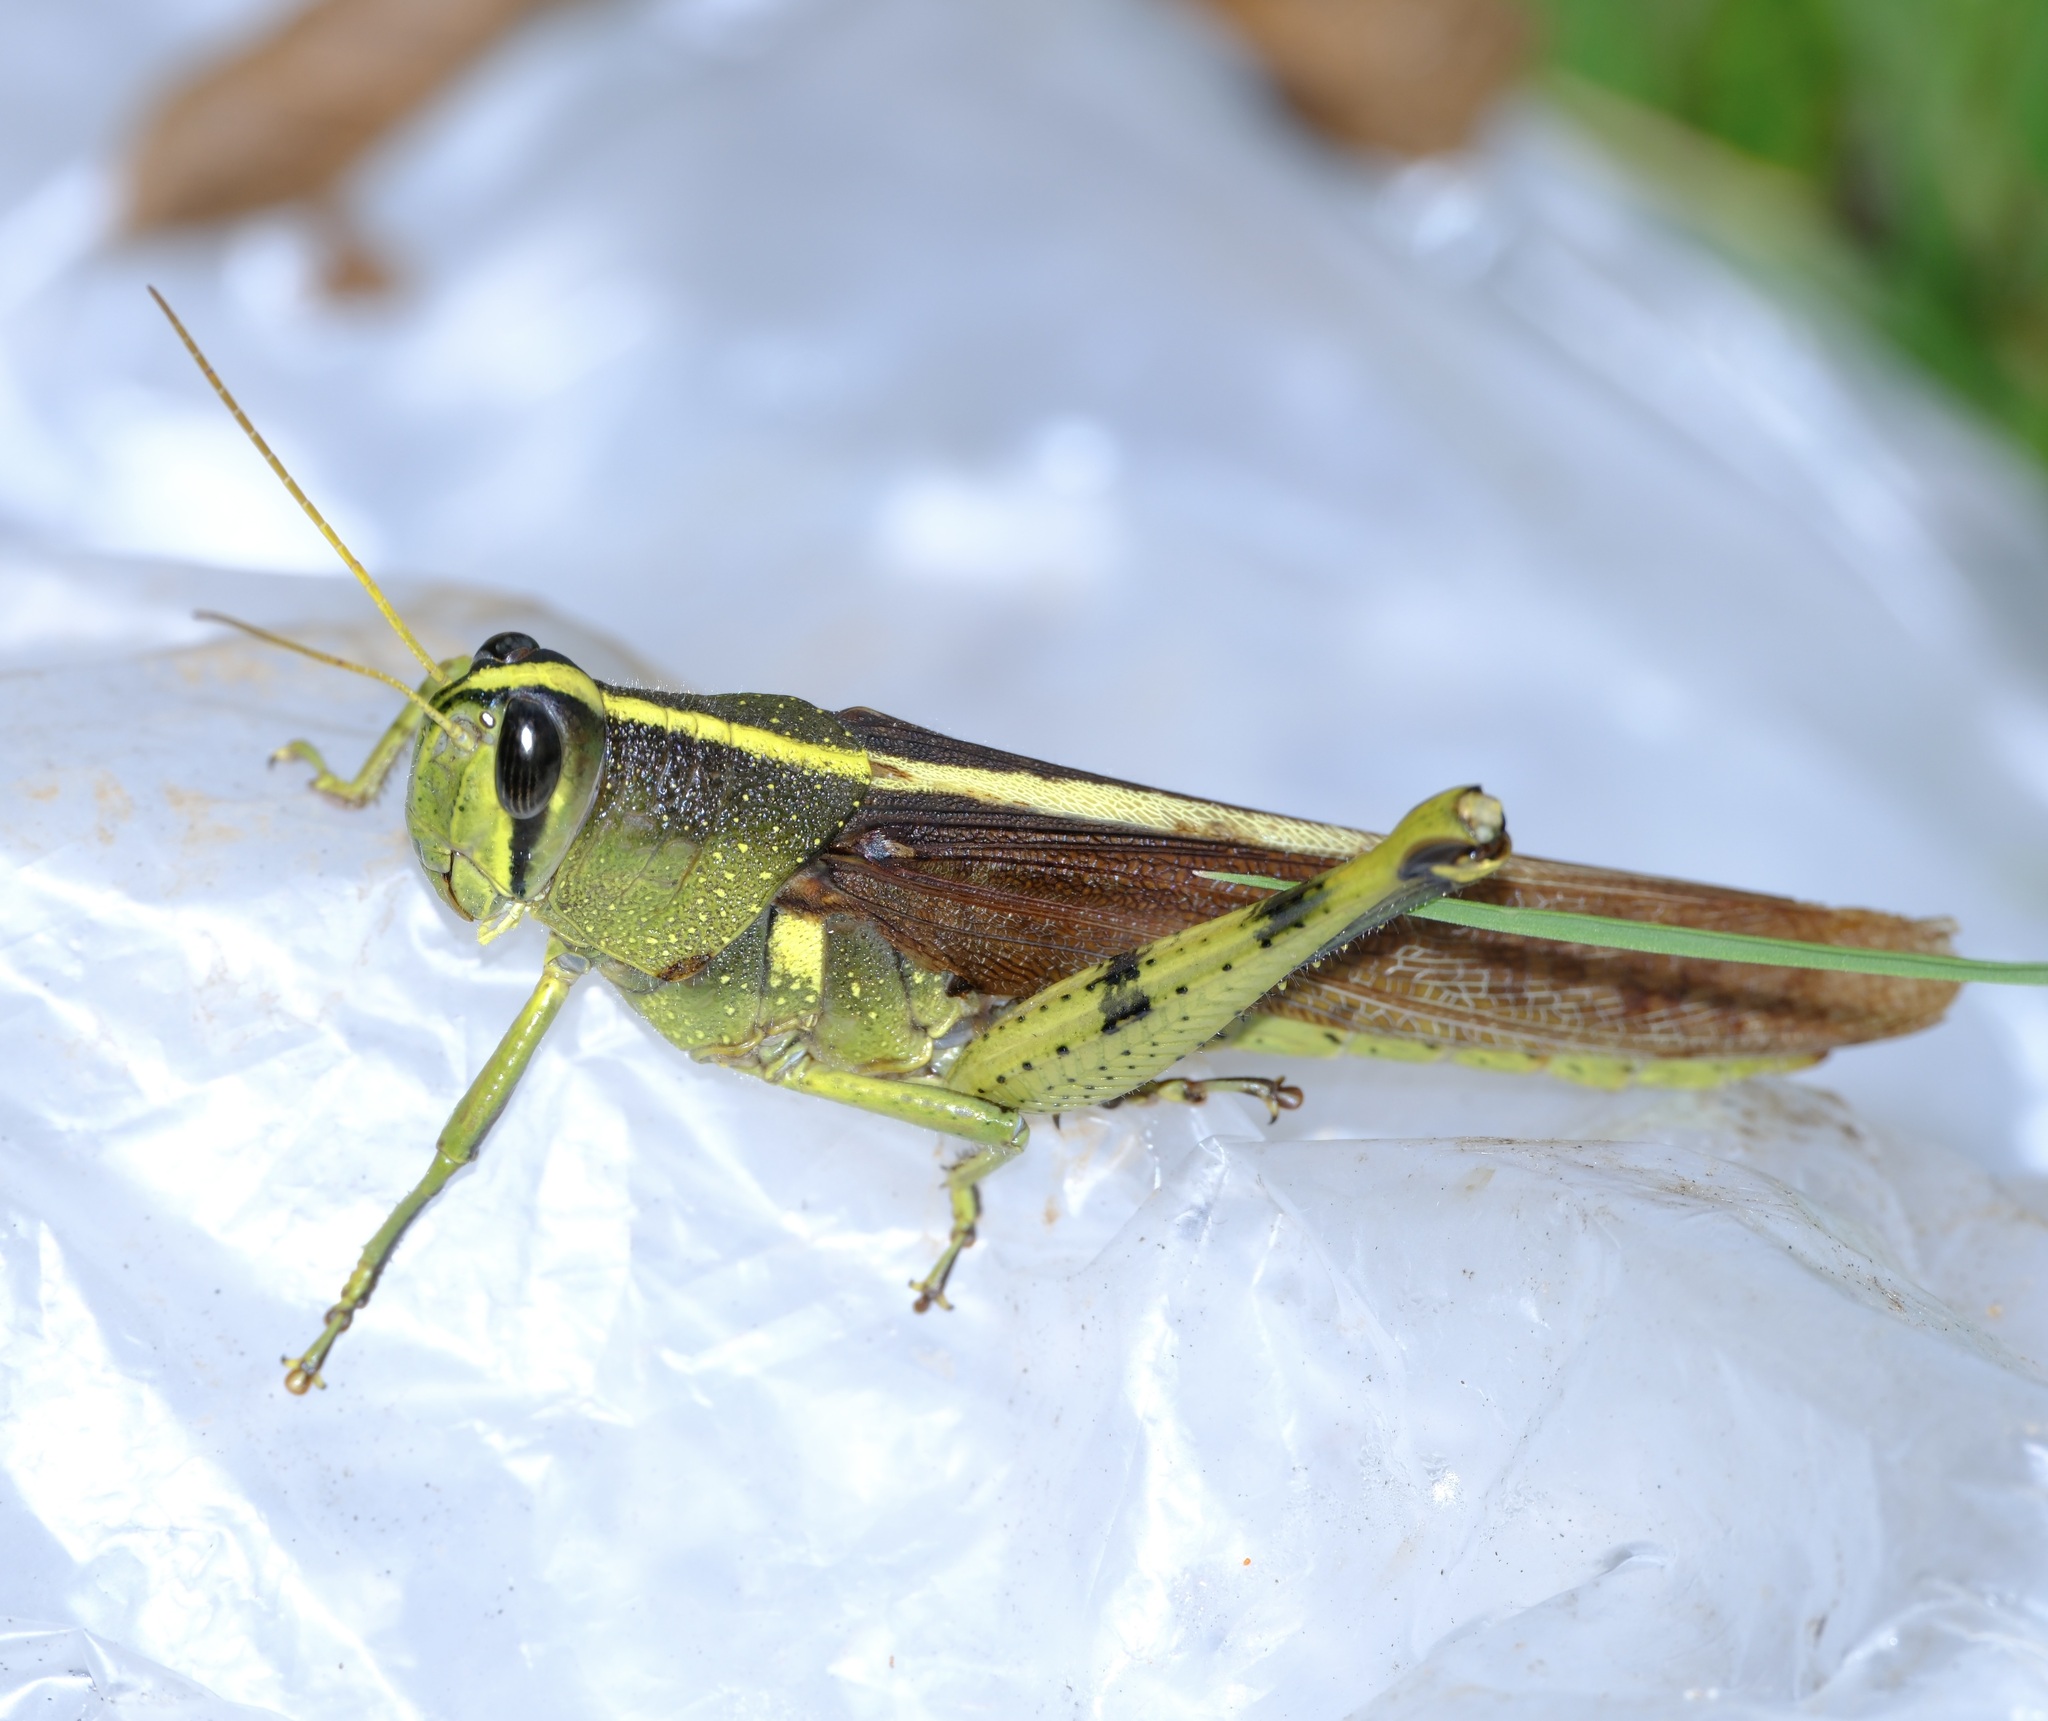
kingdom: Animalia
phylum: Arthropoda
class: Insecta
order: Orthoptera
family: Acrididae
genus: Schistocerca
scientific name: Schistocerca obscura
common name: Obscure bird grasshopper
